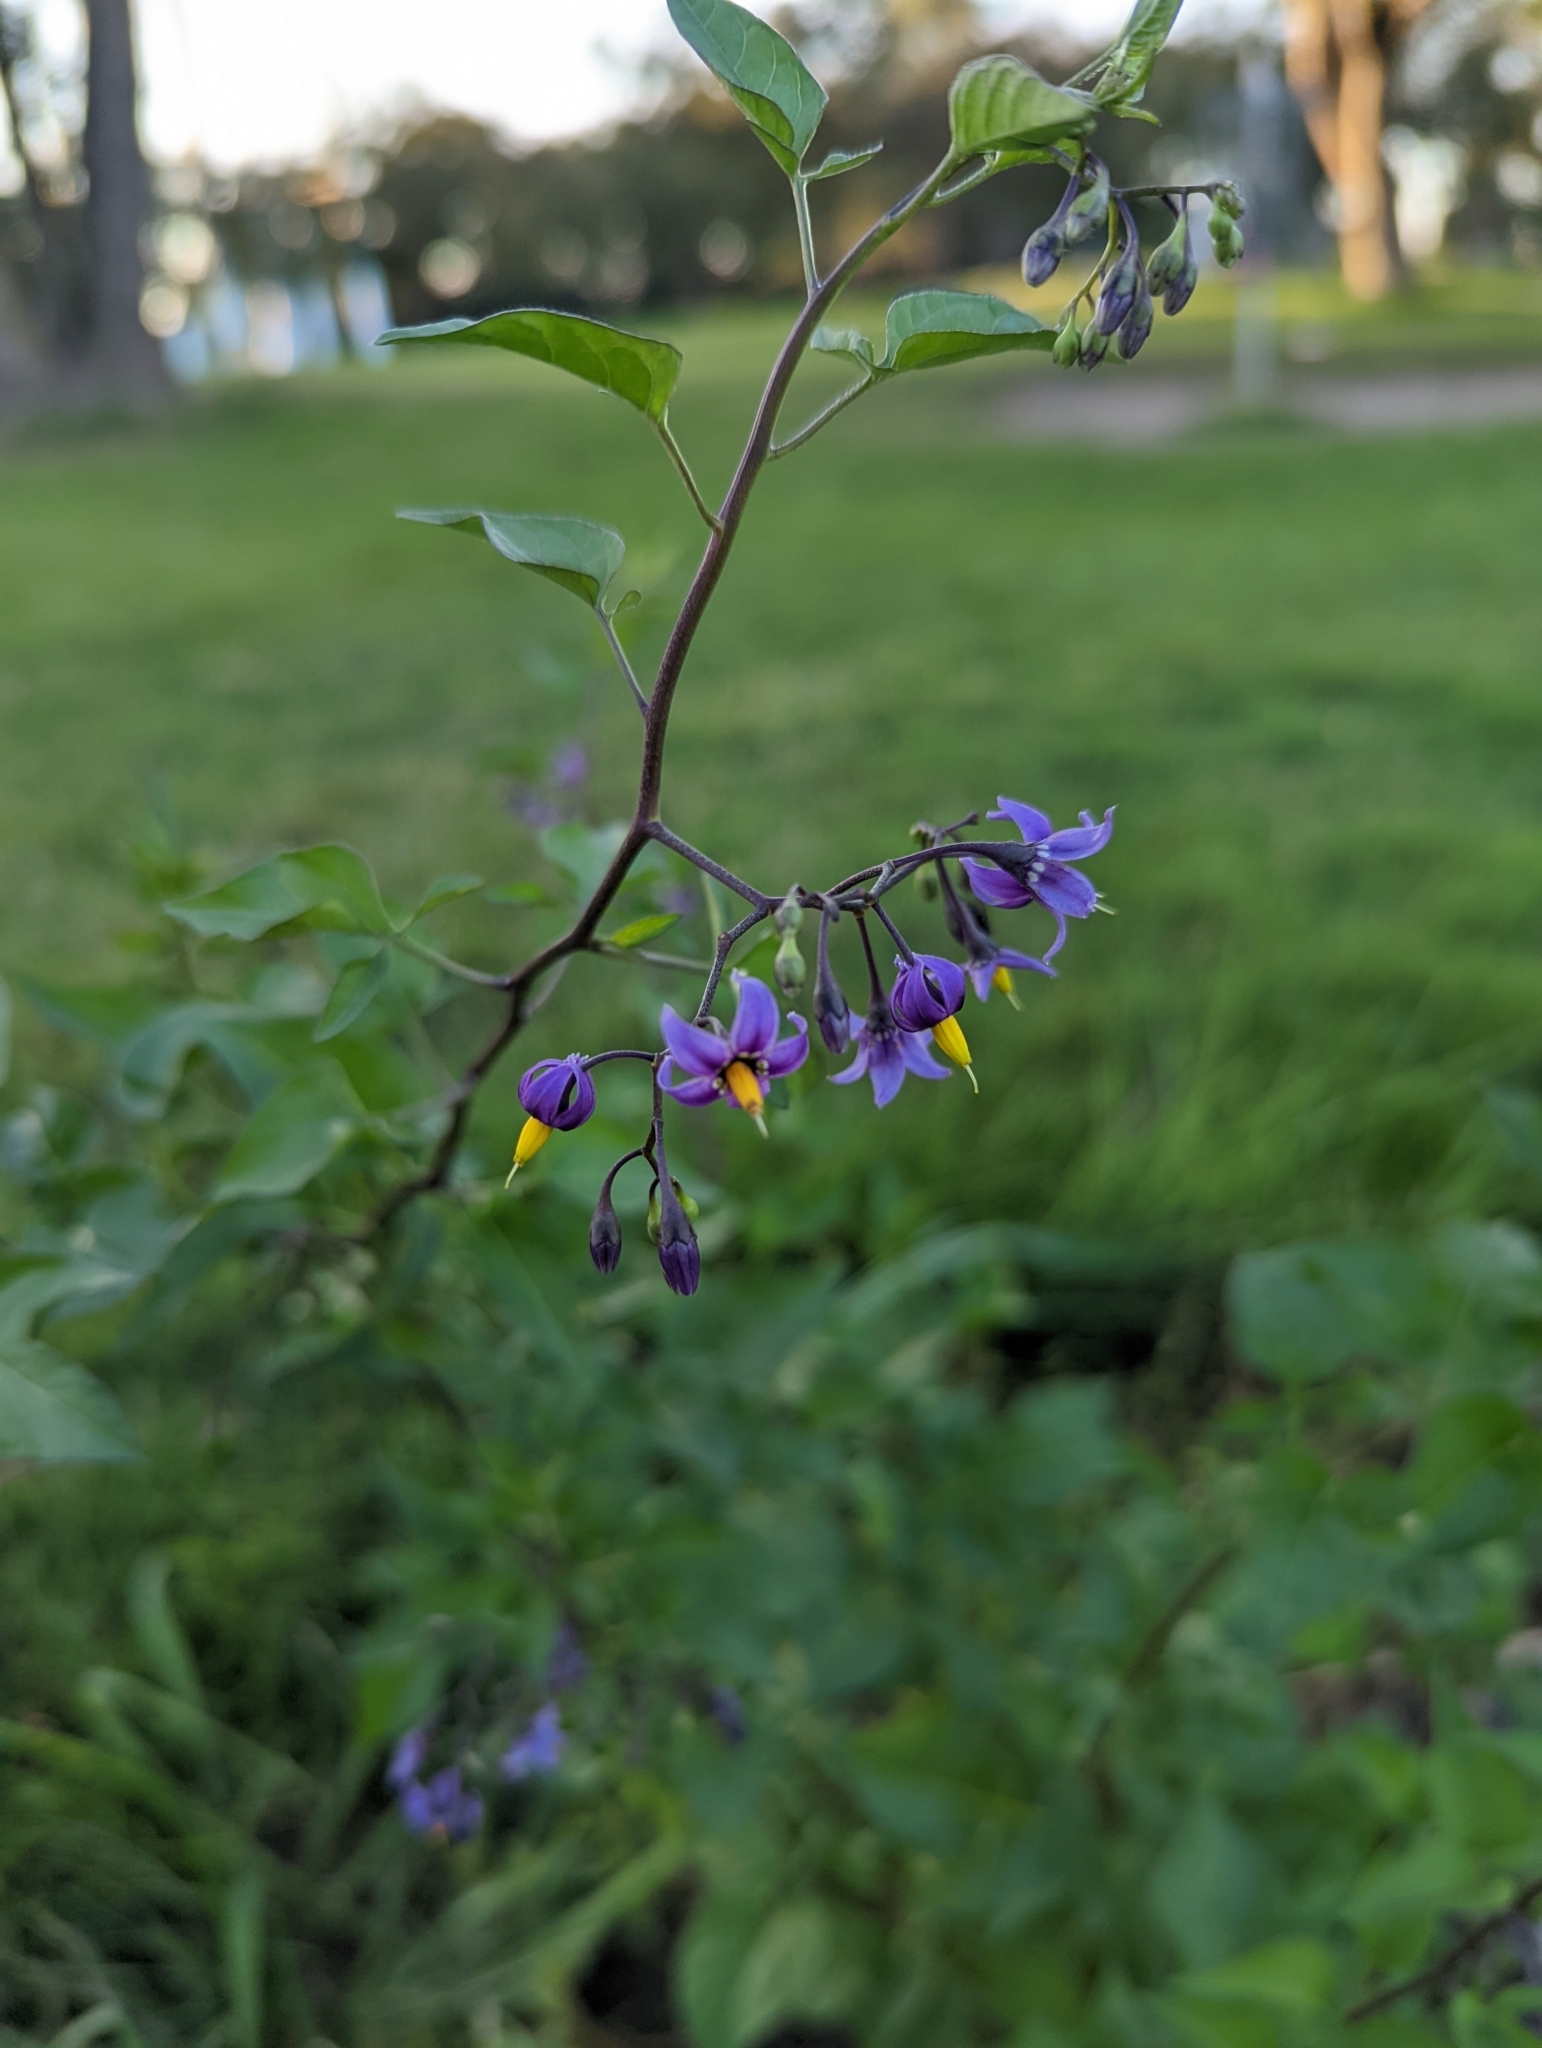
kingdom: Plantae
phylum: Tracheophyta
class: Magnoliopsida
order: Solanales
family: Solanaceae
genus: Solanum
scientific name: Solanum dulcamara
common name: Climbing nightshade
